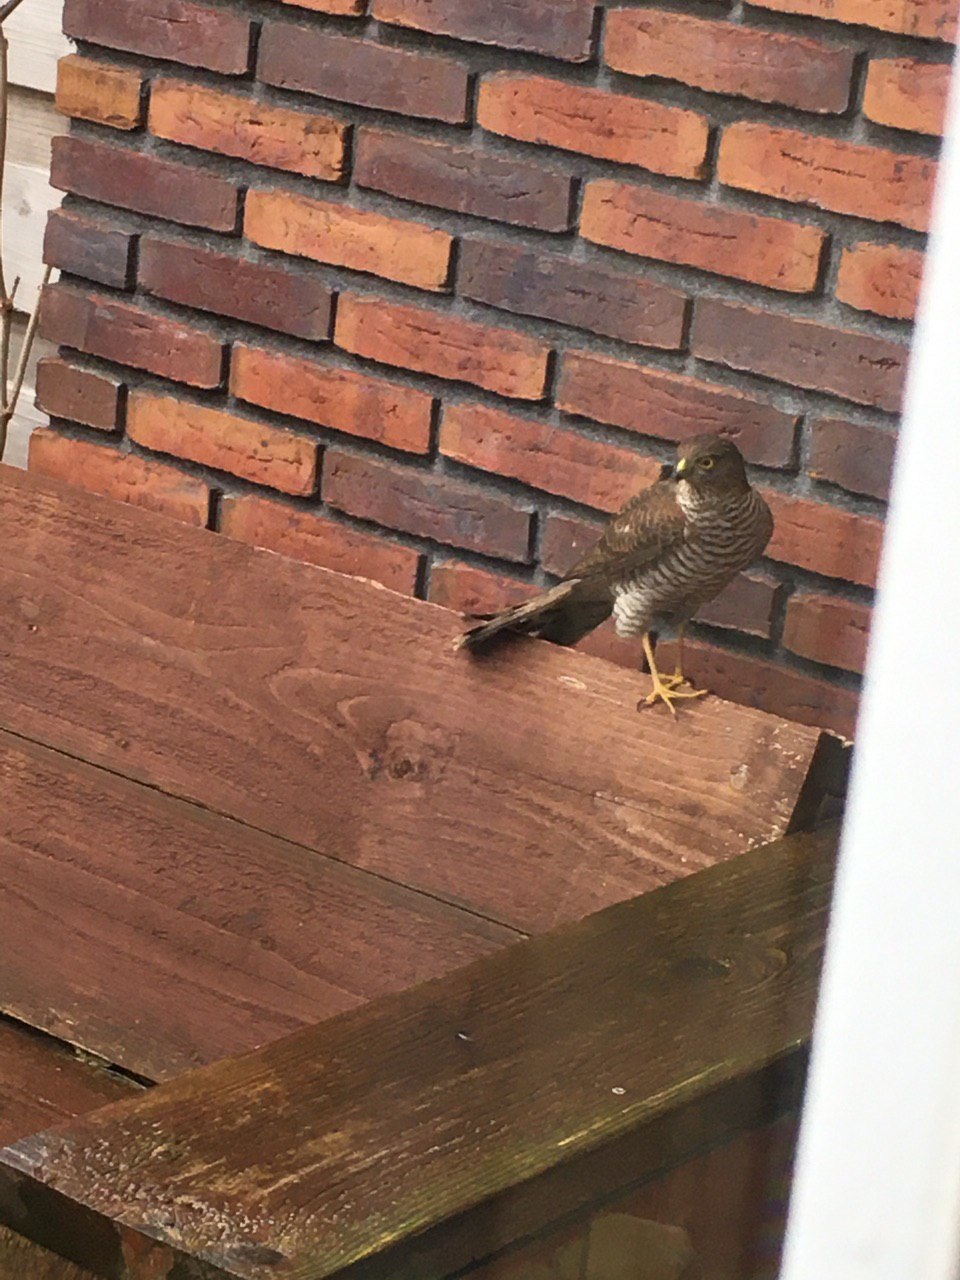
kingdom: Animalia
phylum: Chordata
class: Aves
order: Accipitriformes
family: Accipitridae
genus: Accipiter
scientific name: Accipiter nisus
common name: Eurasian sparrowhawk
